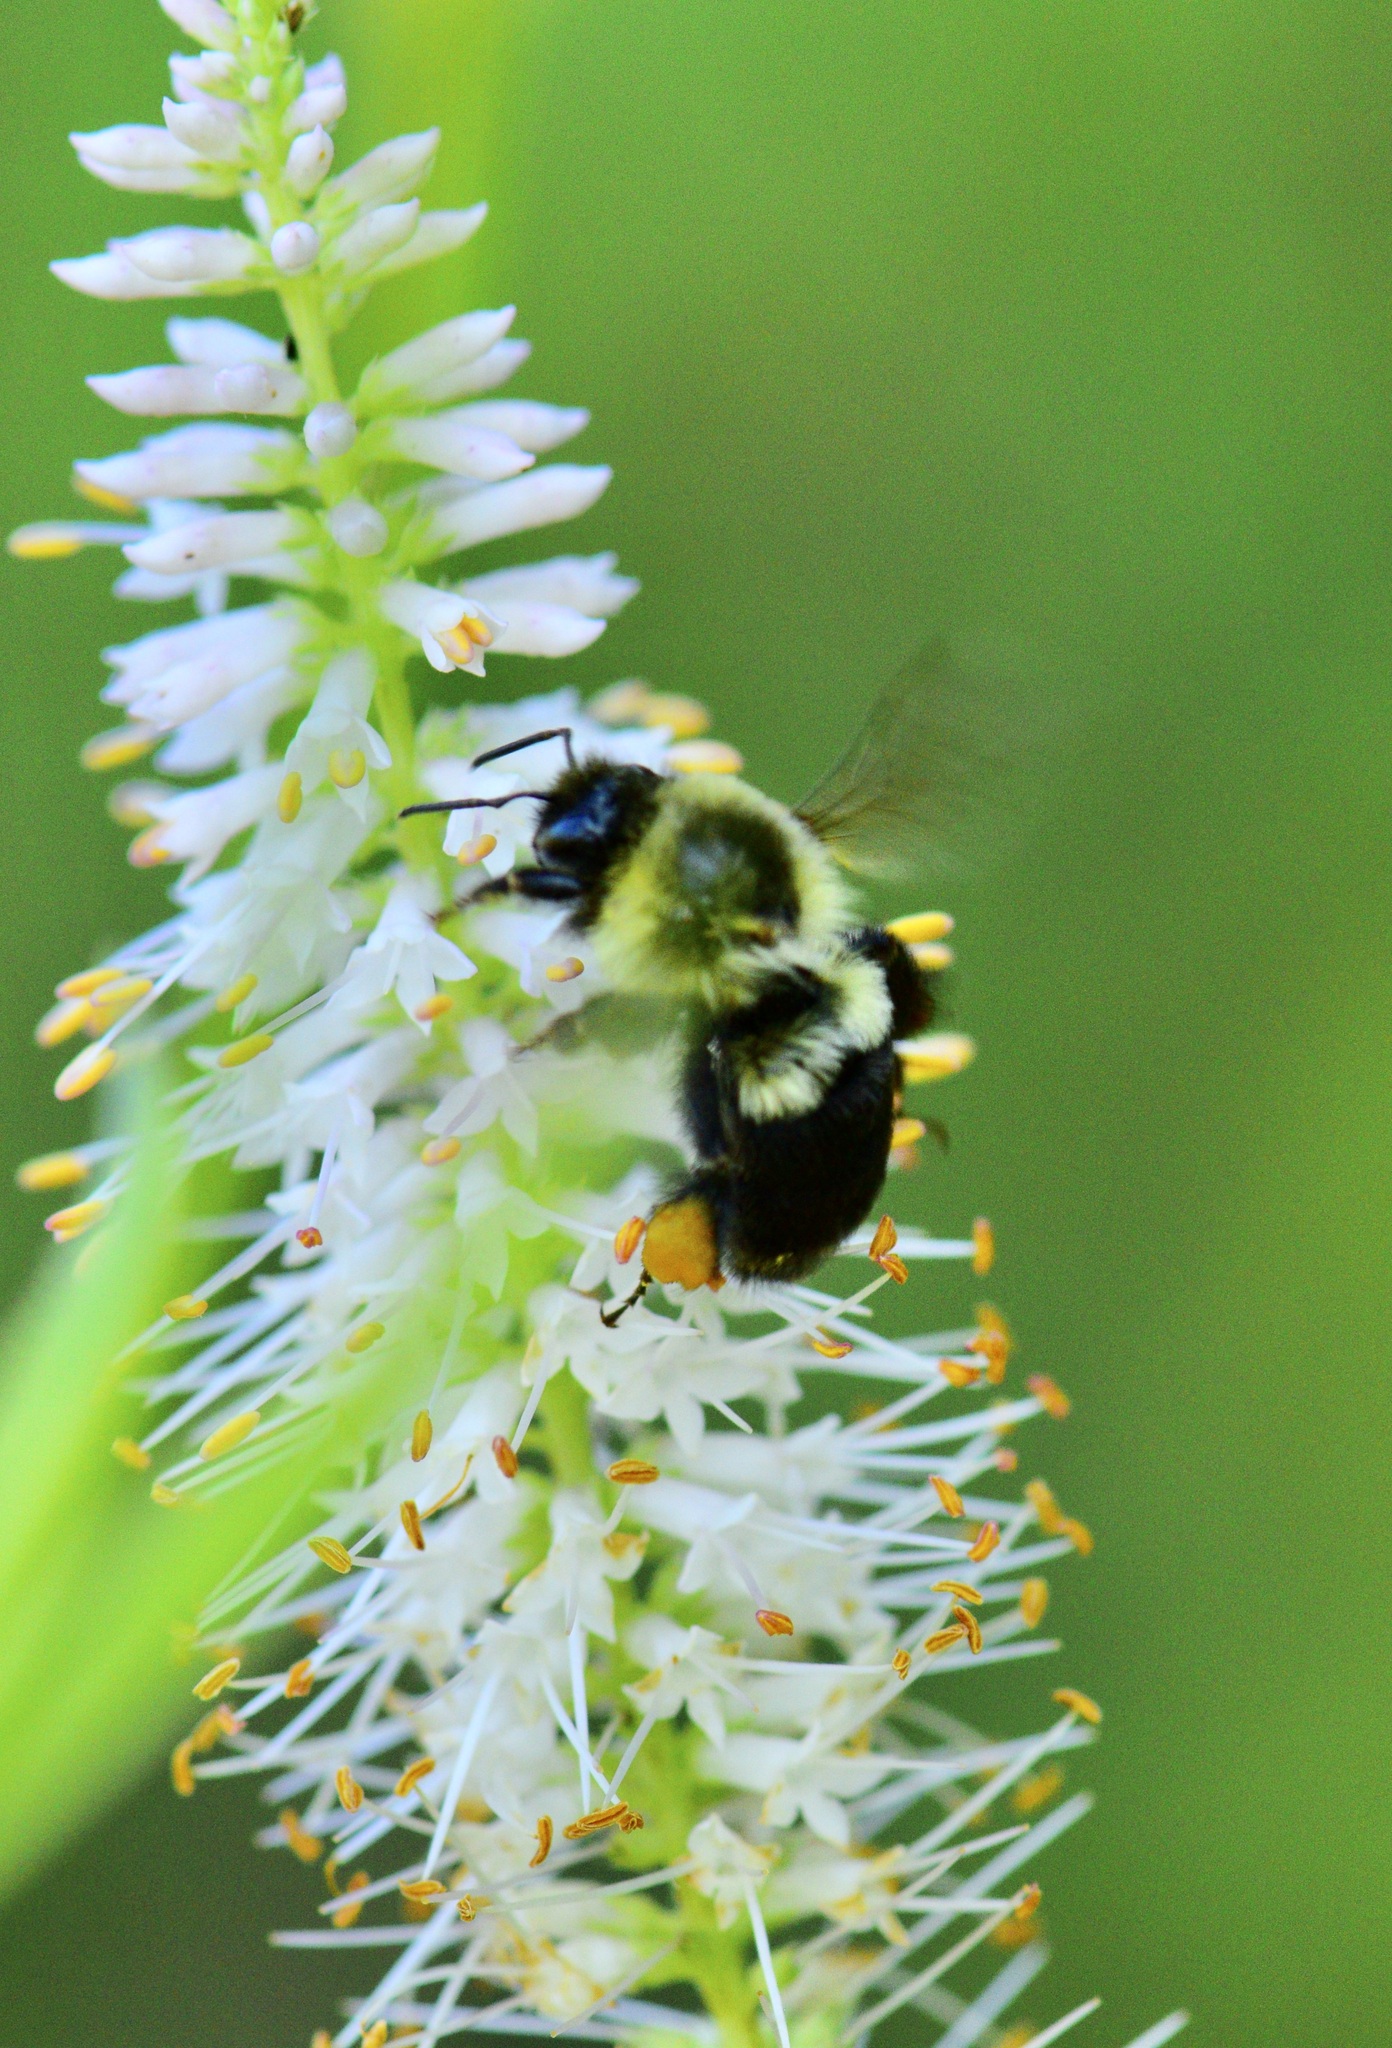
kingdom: Animalia
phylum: Arthropoda
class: Insecta
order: Hymenoptera
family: Apidae
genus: Bombus
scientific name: Bombus impatiens
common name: Common eastern bumble bee
